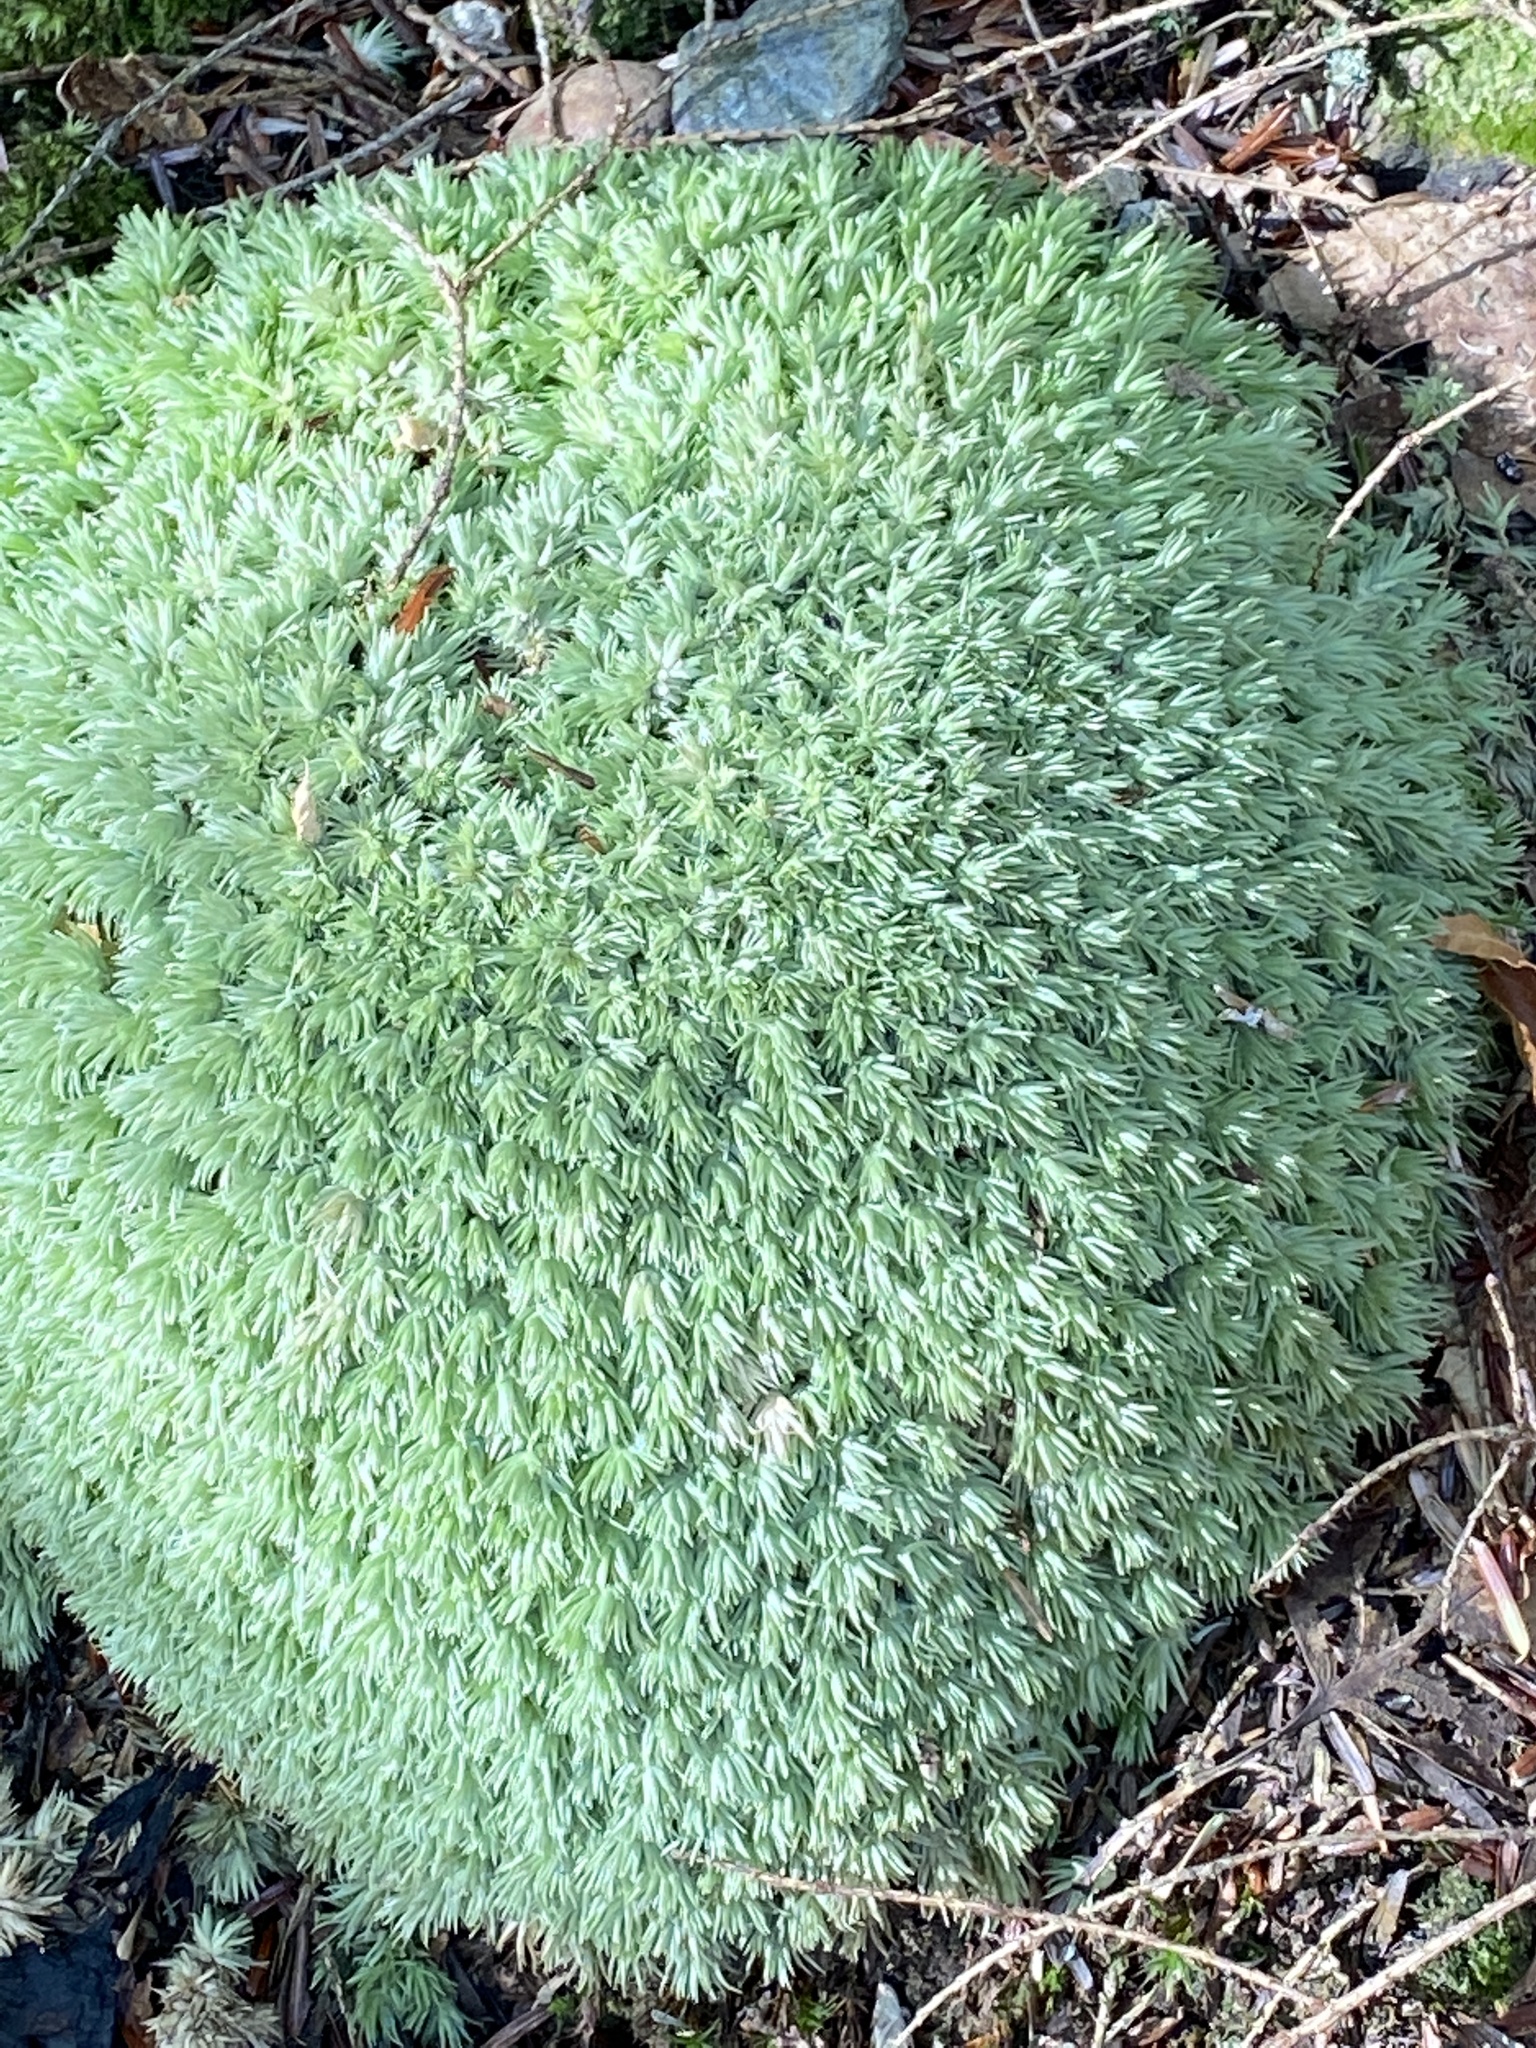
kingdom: Plantae
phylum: Bryophyta
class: Bryopsida
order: Dicranales
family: Leucobryaceae
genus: Leucobryum
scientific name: Leucobryum glaucum
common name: Large white-moss
